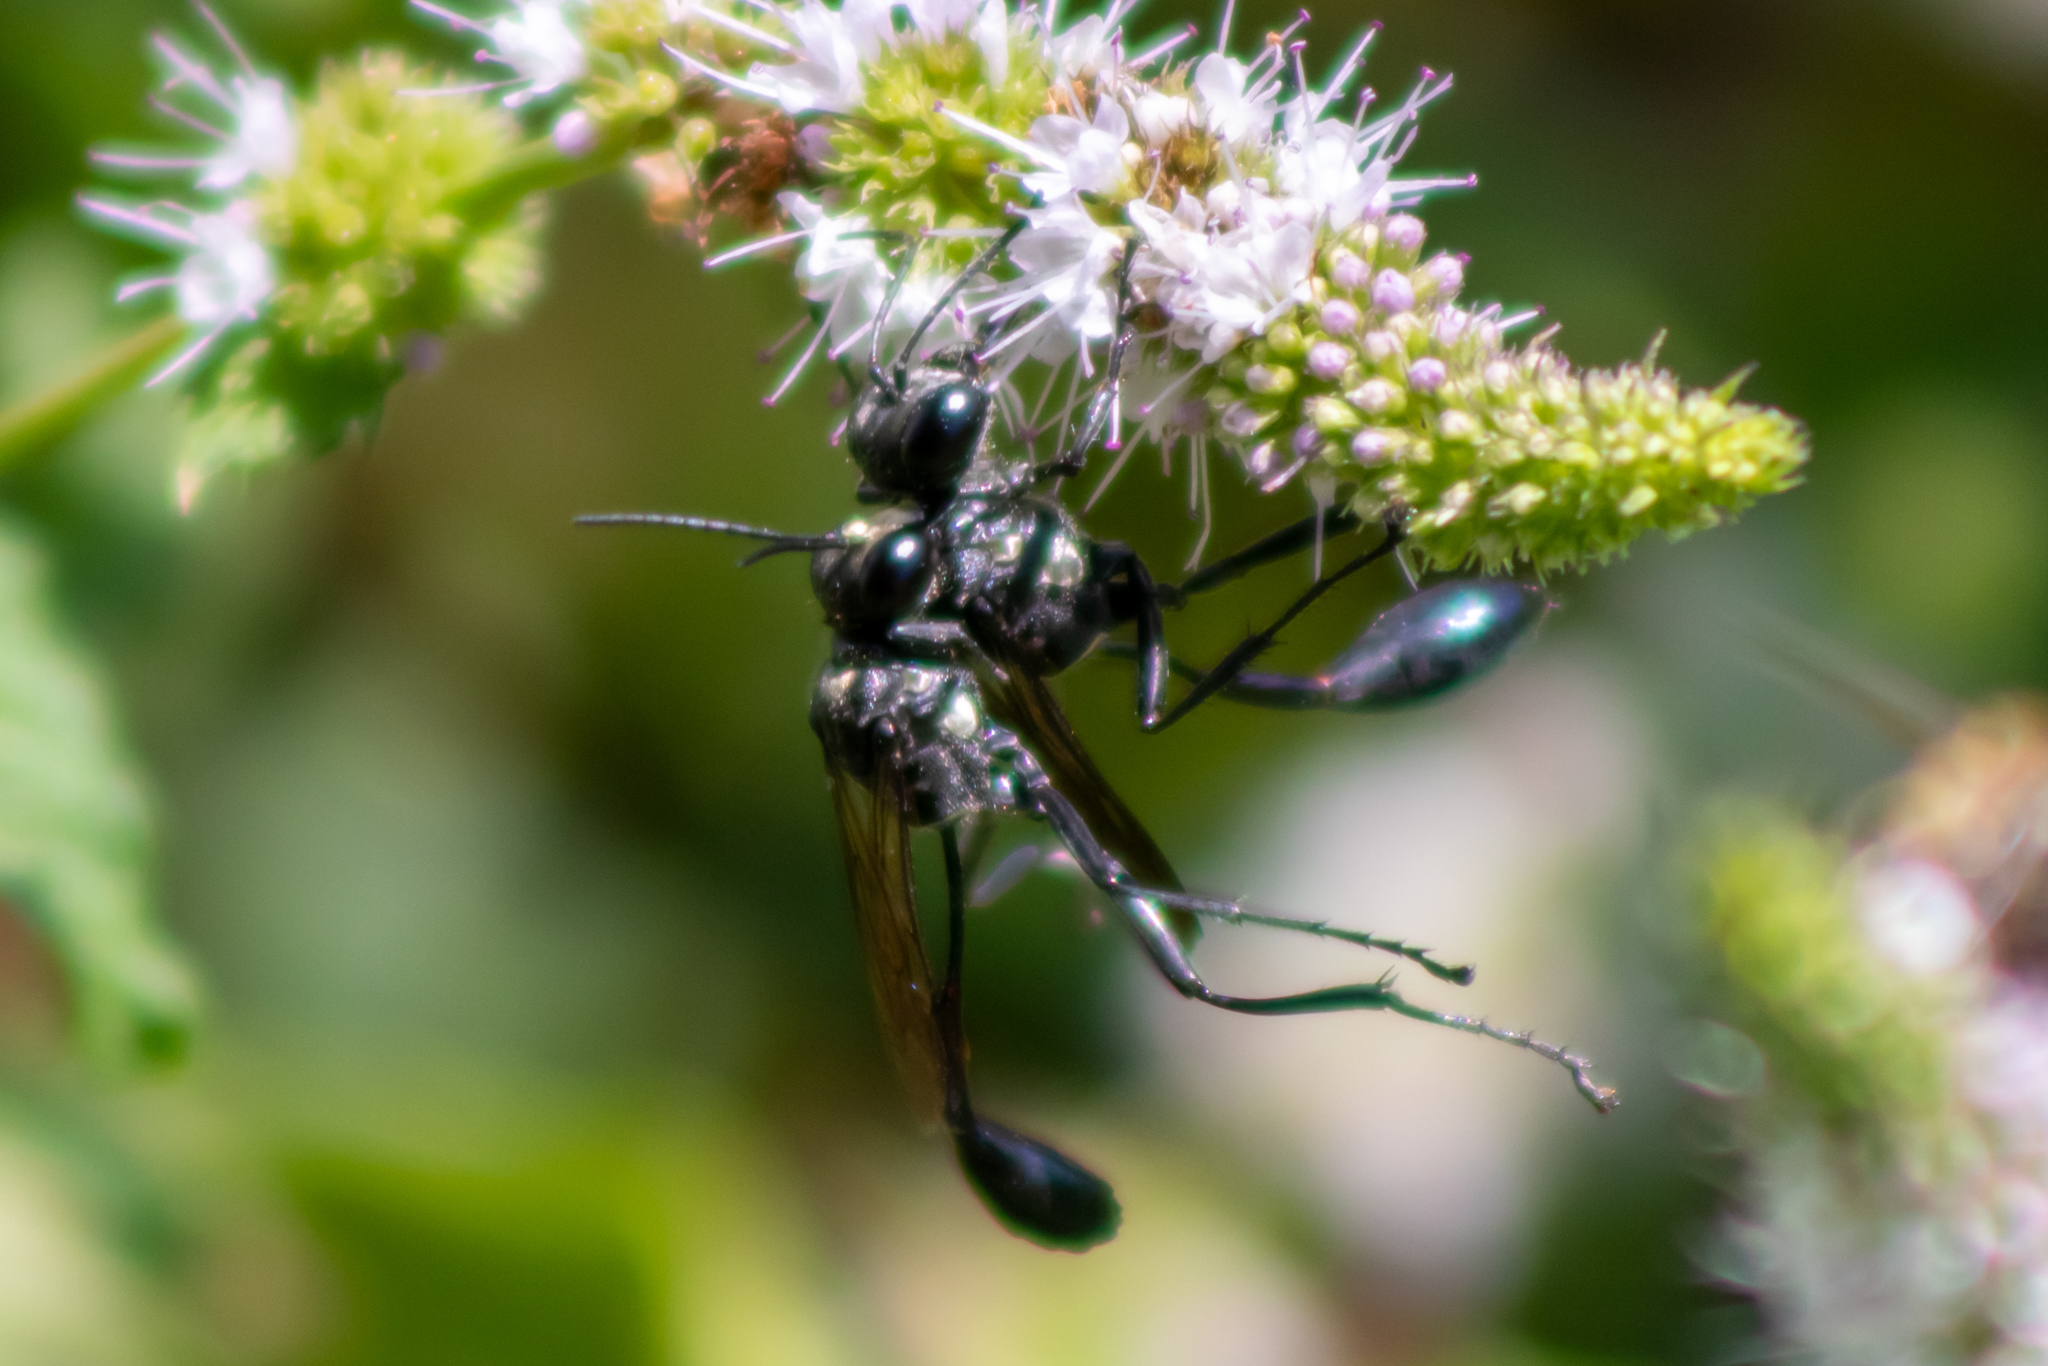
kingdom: Animalia
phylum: Arthropoda
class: Insecta
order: Hymenoptera
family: Sphecidae
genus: Eremnophila
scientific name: Eremnophila aureonotata
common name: Gold-marked thread-waisted wasp
